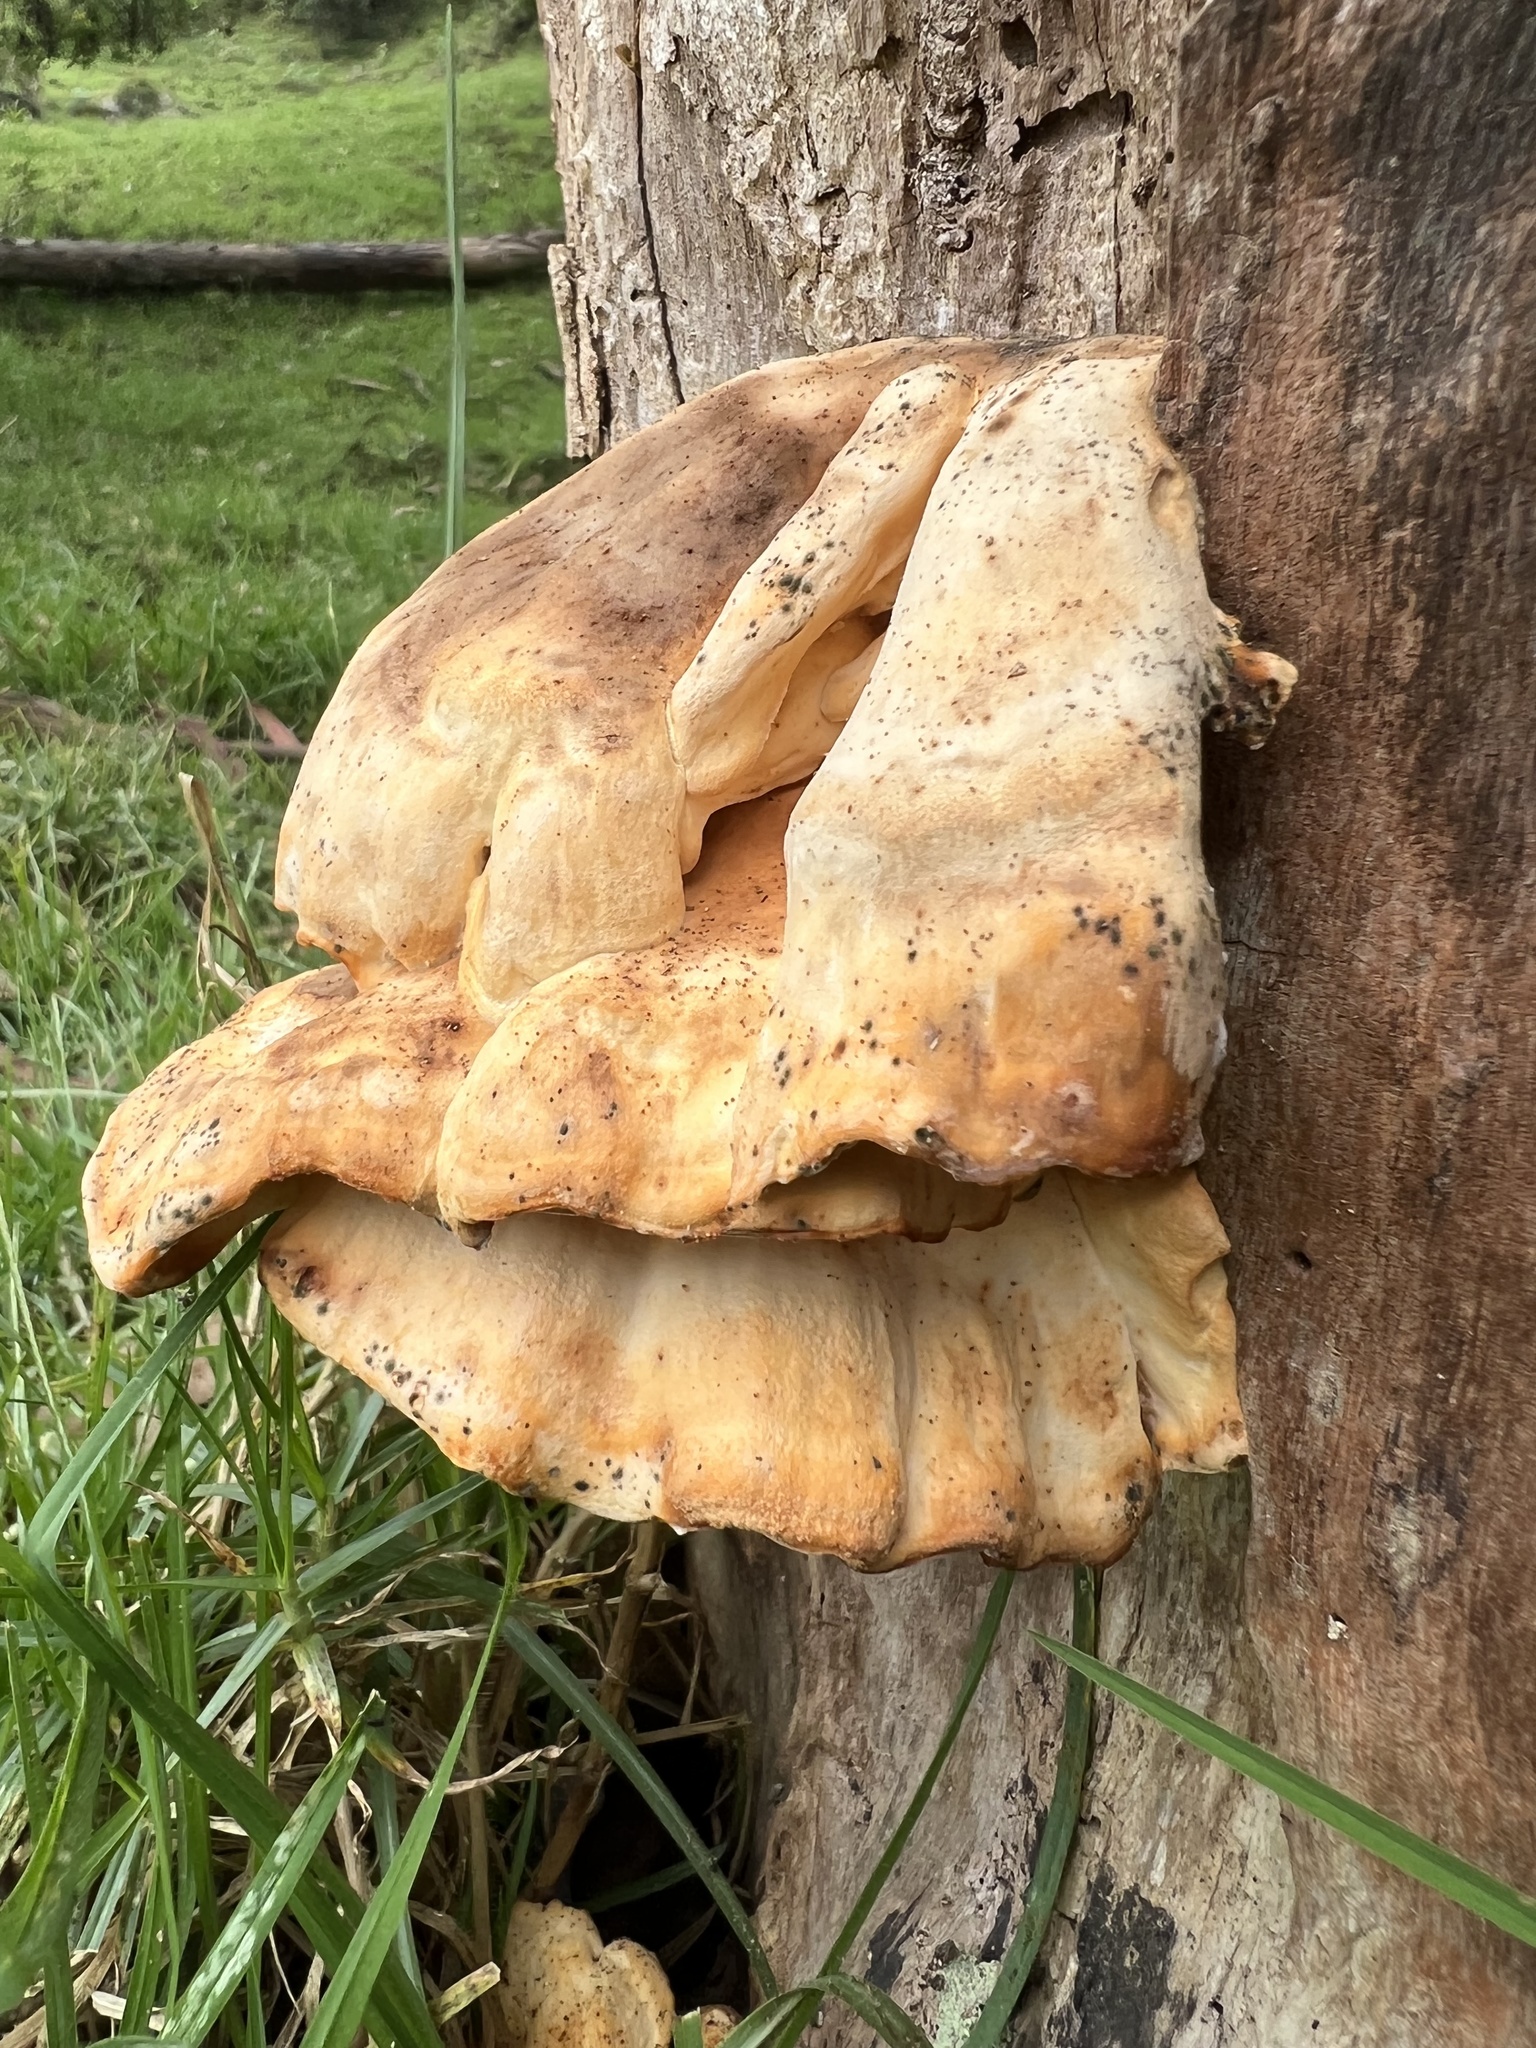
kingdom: Fungi
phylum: Basidiomycota
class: Agaricomycetes
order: Polyporales
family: Laetiporaceae
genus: Laetiporus
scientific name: Laetiporus sulphureus
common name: Chicken of the woods
